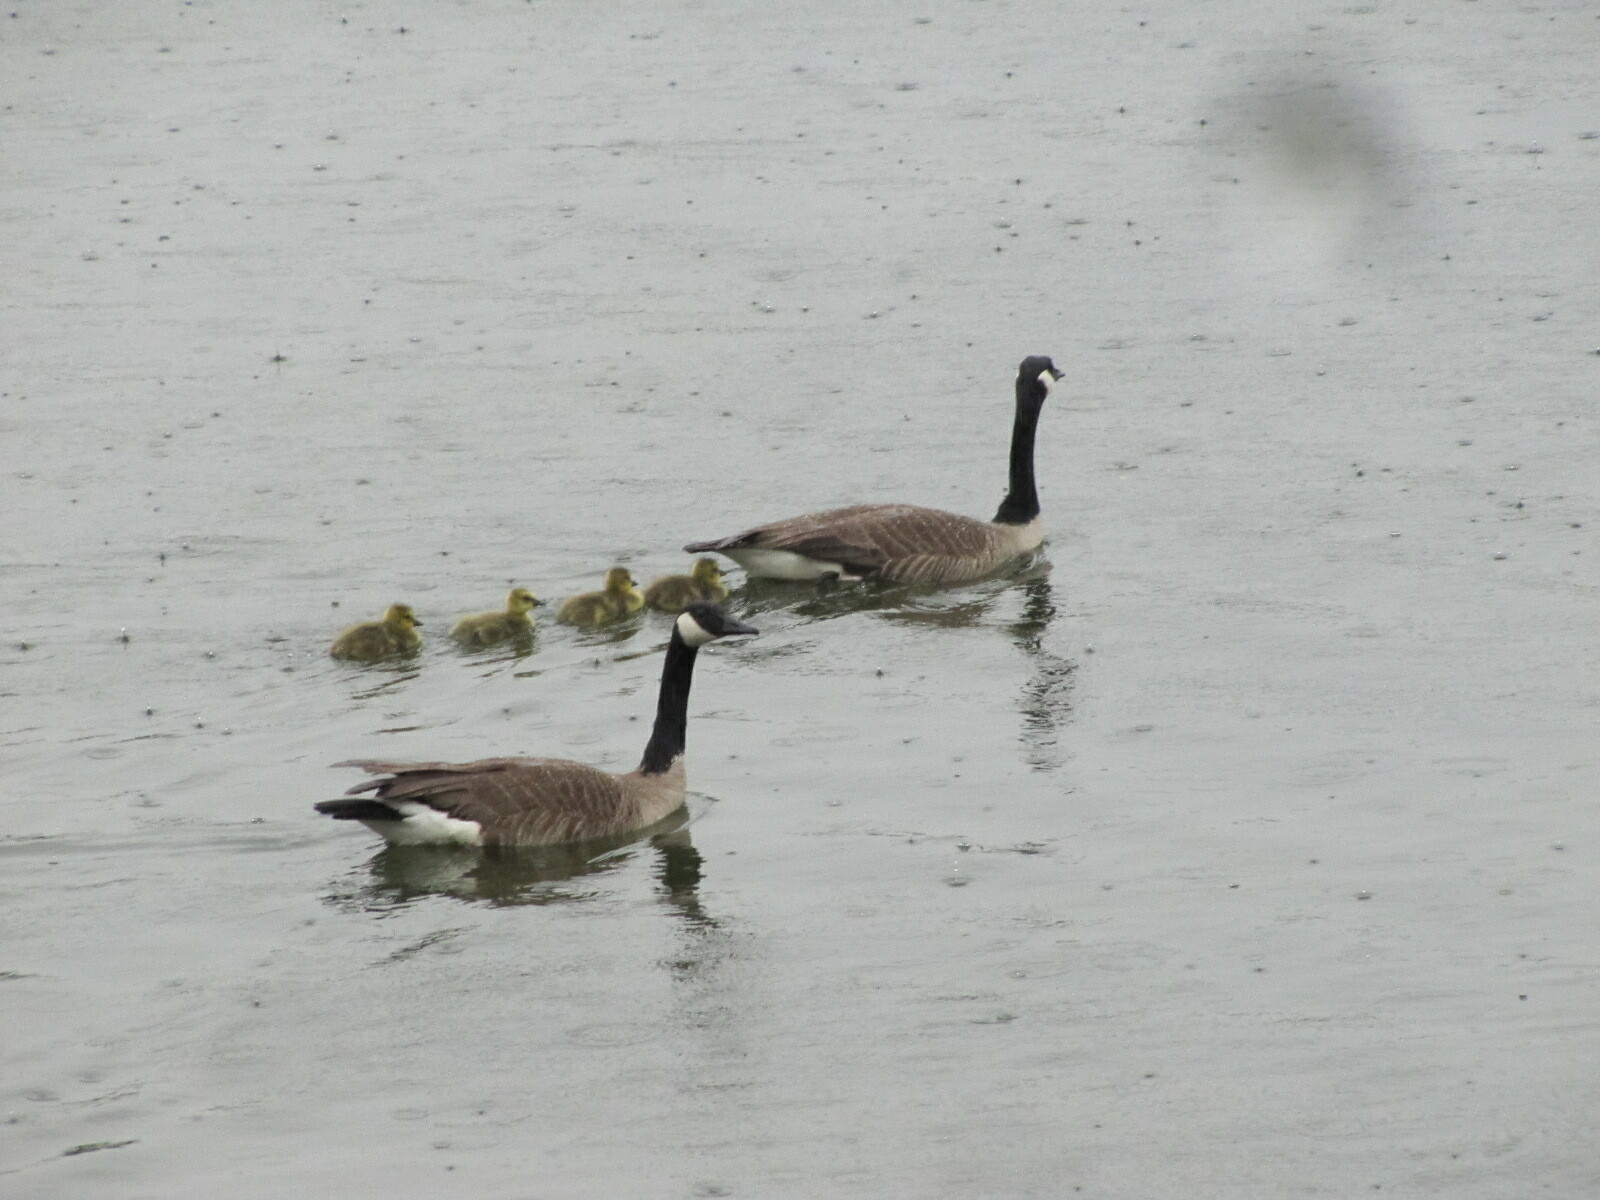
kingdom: Animalia
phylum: Chordata
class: Aves
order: Anseriformes
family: Anatidae
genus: Branta
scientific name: Branta canadensis
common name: Canada goose
